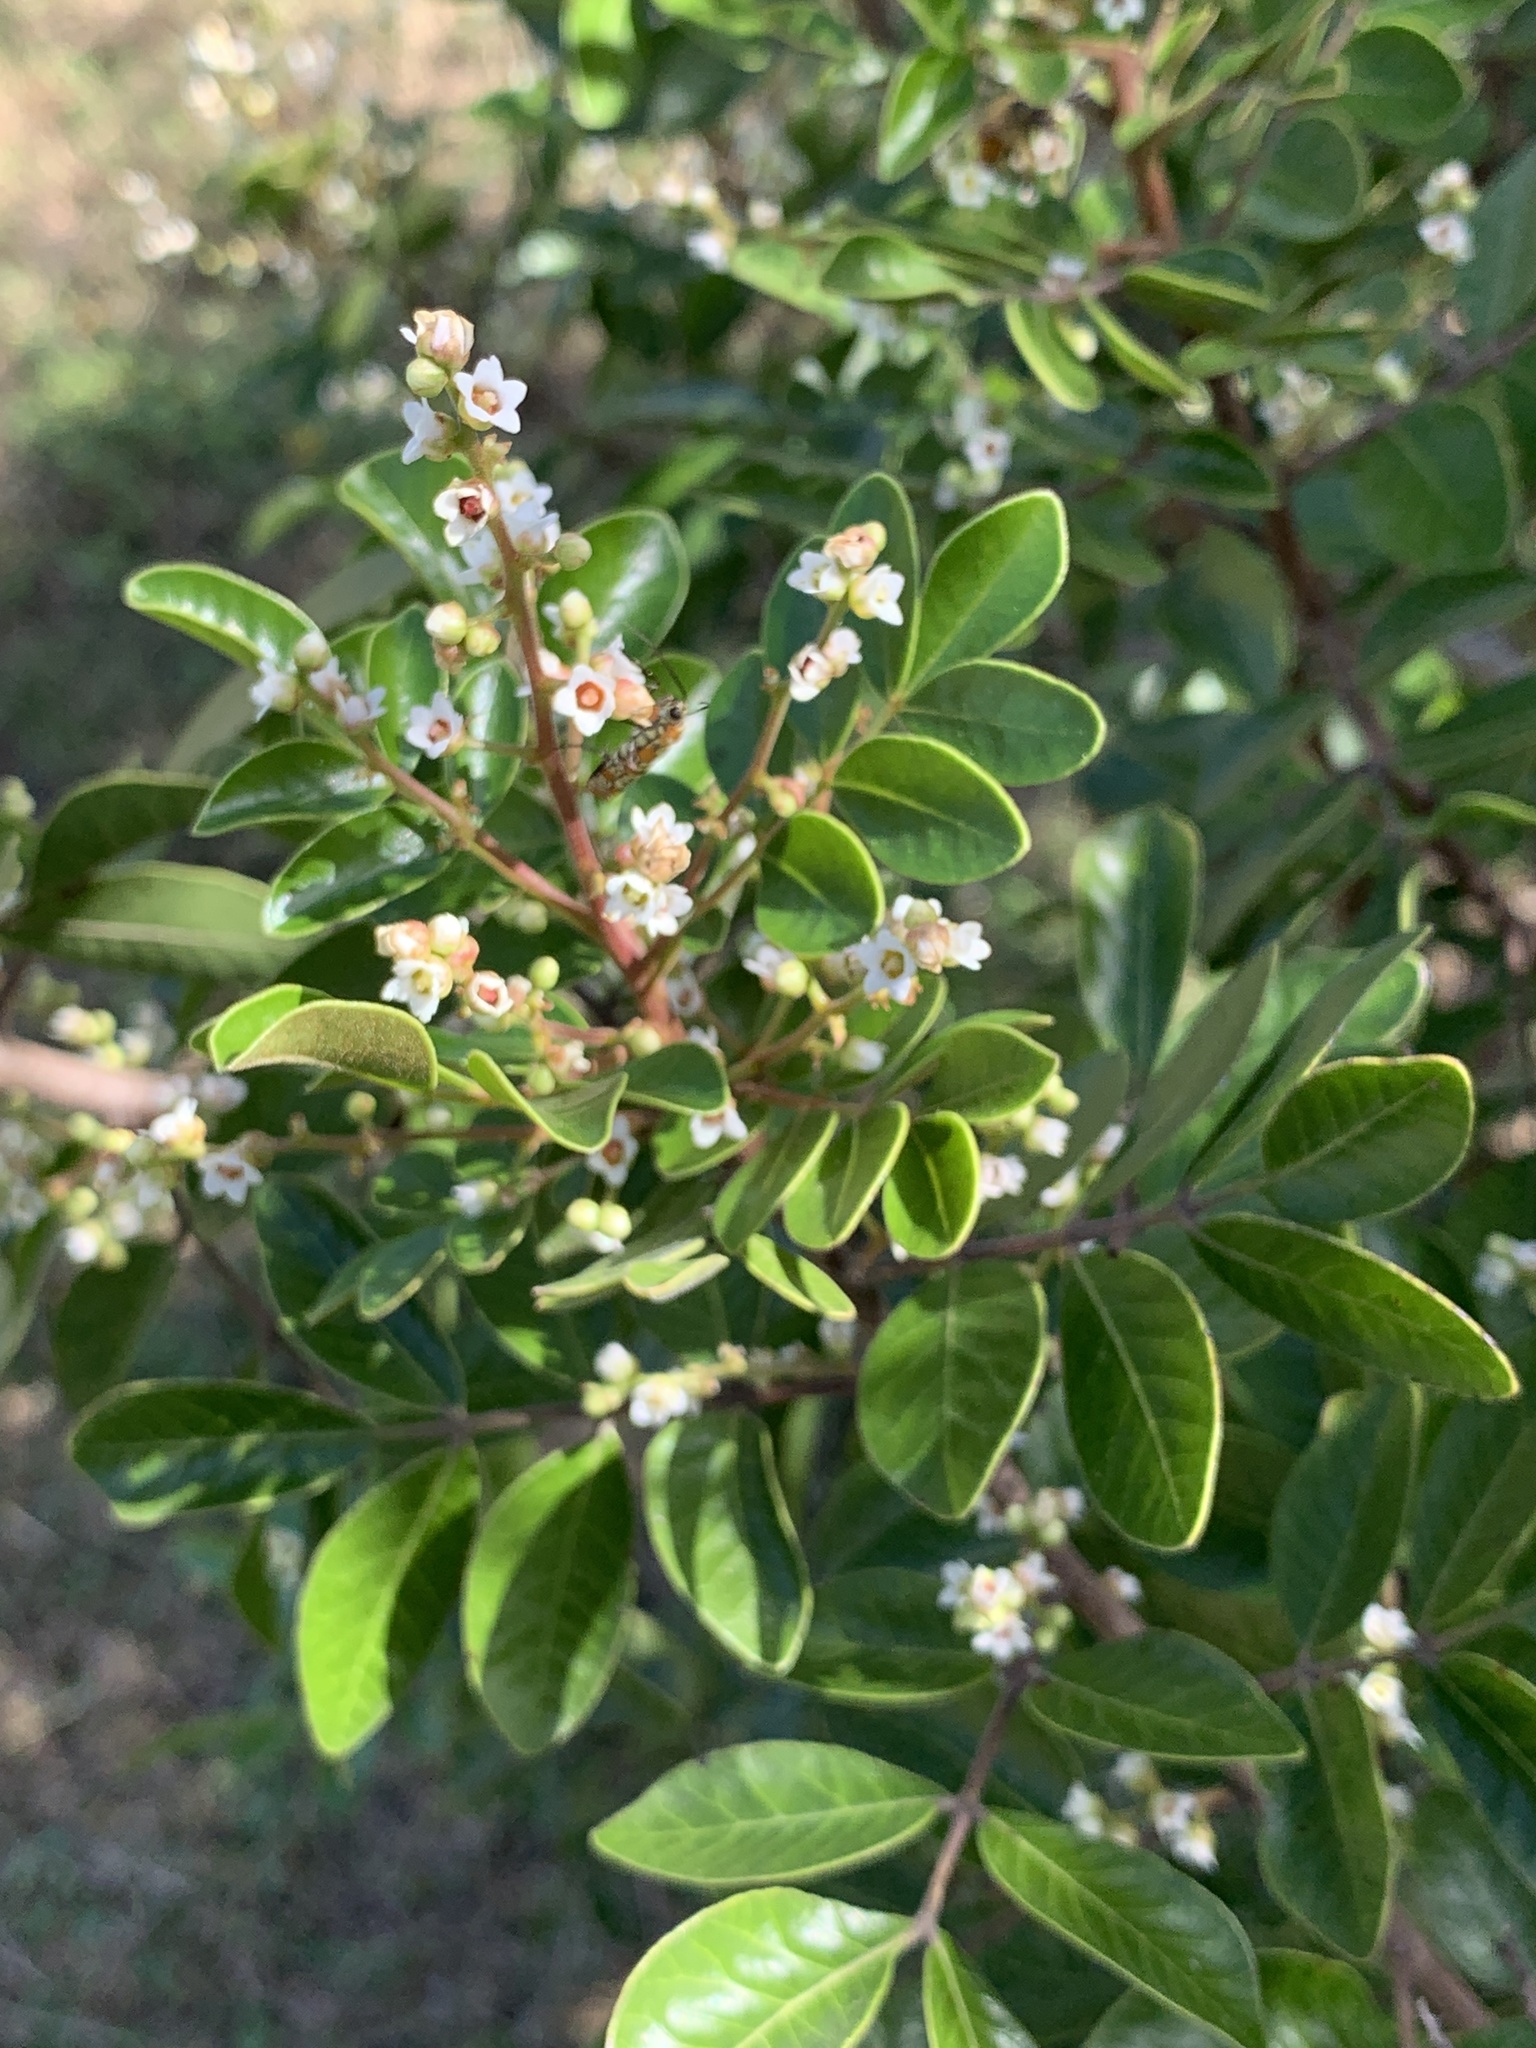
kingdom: Plantae
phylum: Tracheophyta
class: Magnoliopsida
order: Sapindales
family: Anacardiaceae
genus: Rhus
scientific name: Rhus virens
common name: Evergreen sumac
